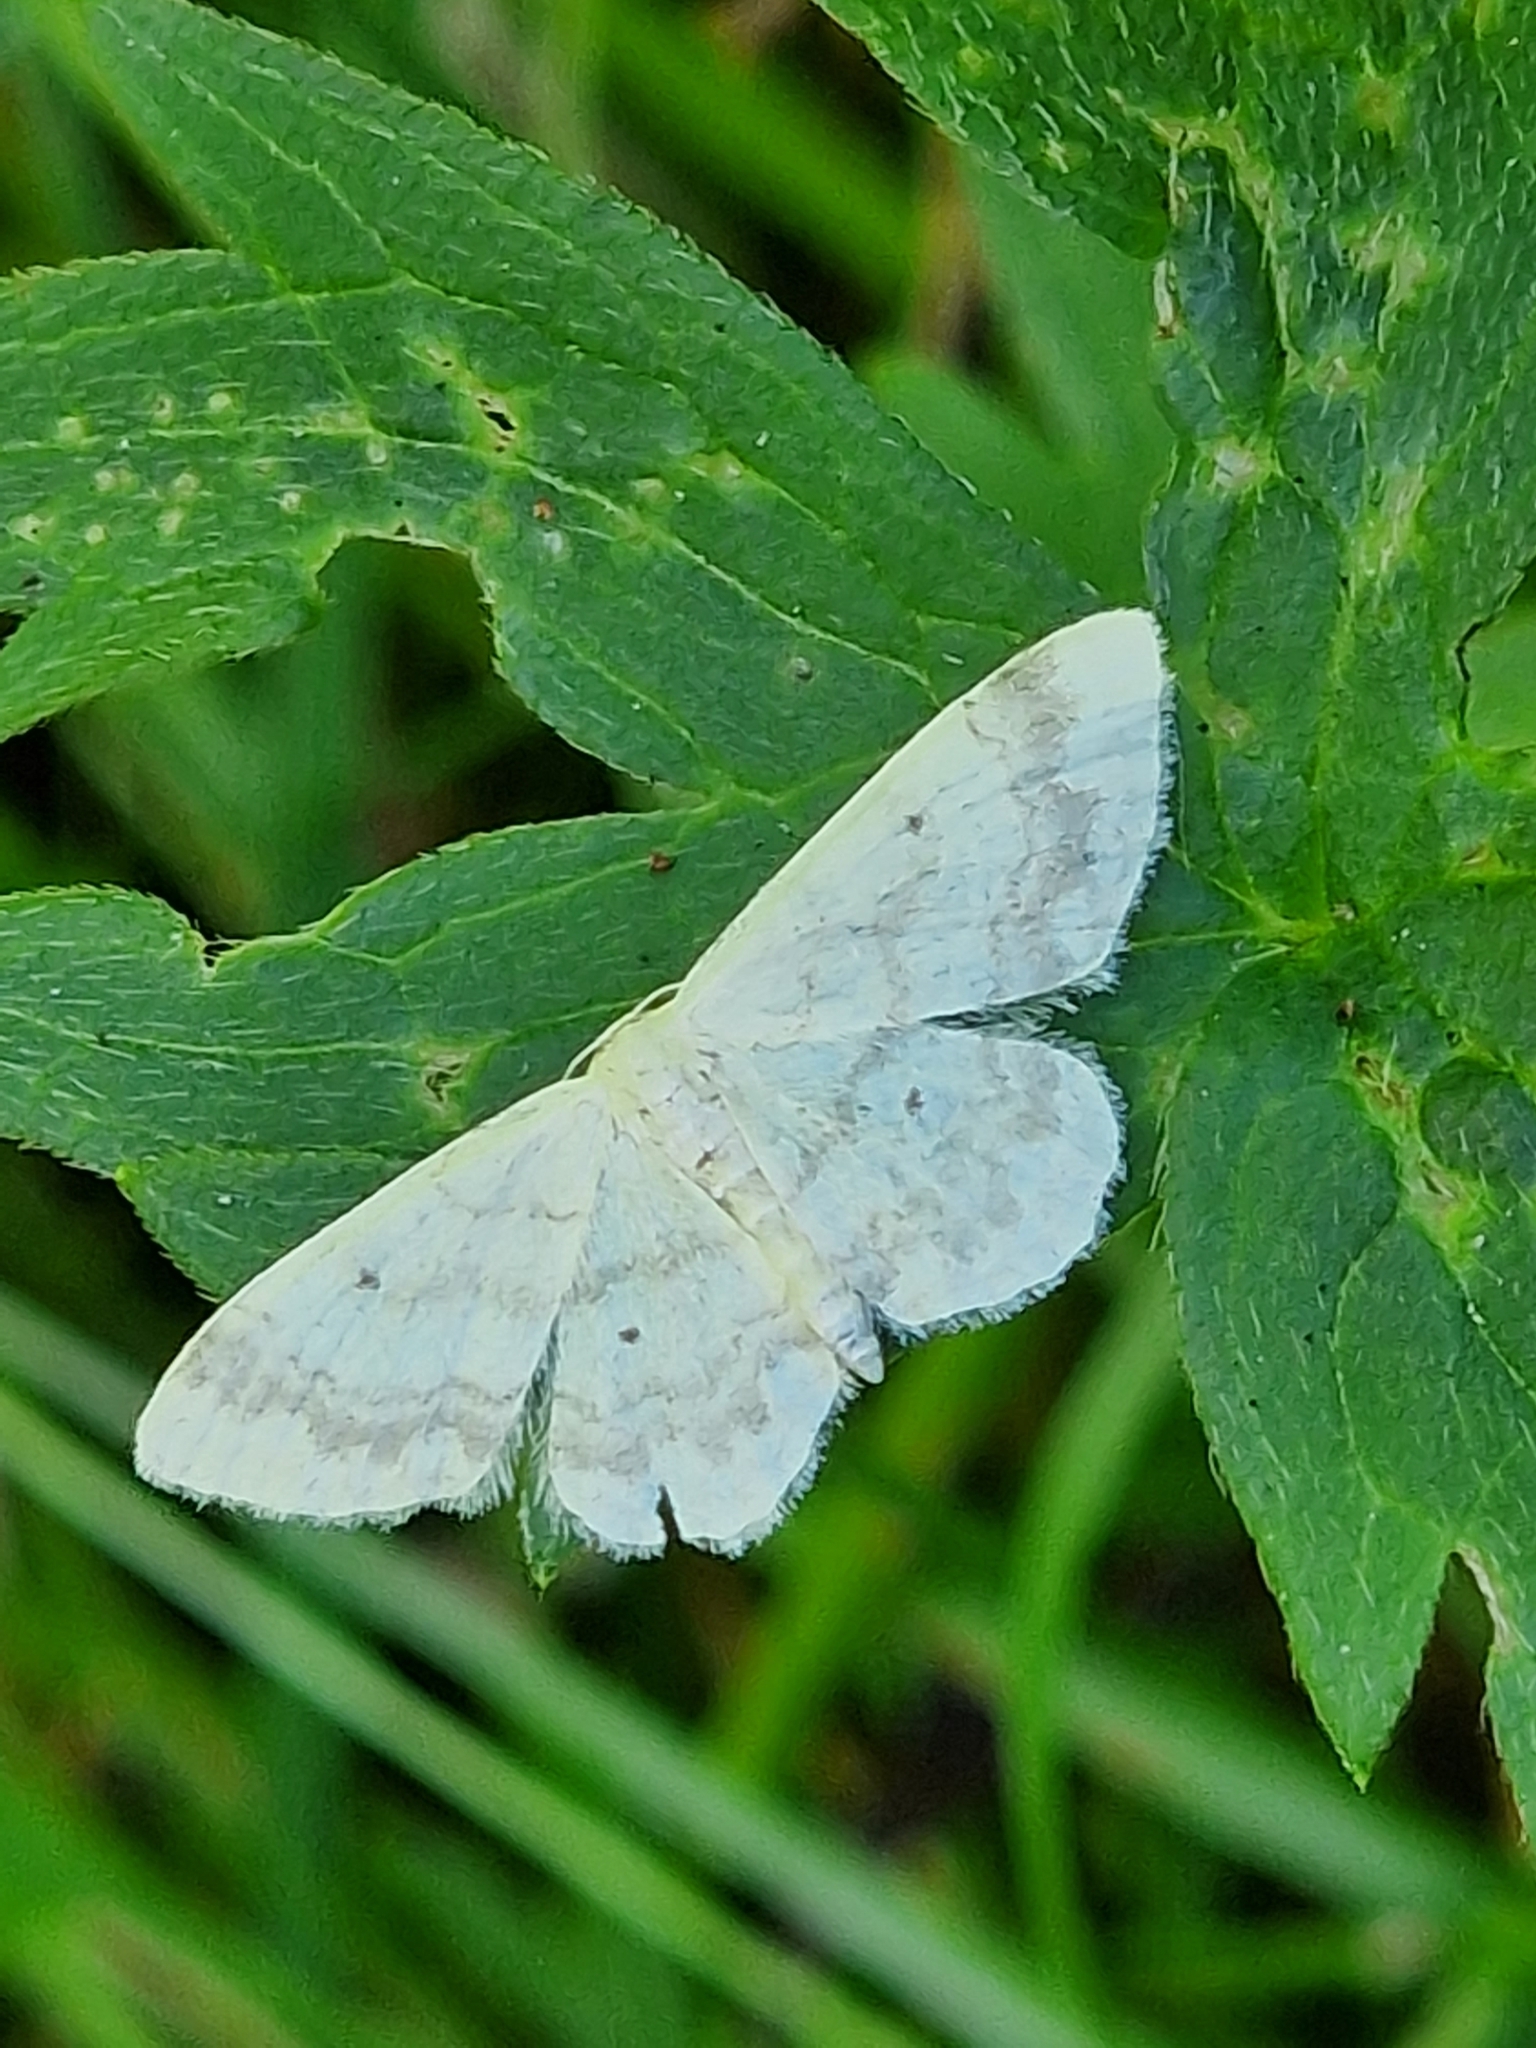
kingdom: Animalia
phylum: Arthropoda
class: Insecta
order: Lepidoptera
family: Geometridae
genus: Idaea
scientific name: Idaea biselata
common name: Small fan-footed wave
